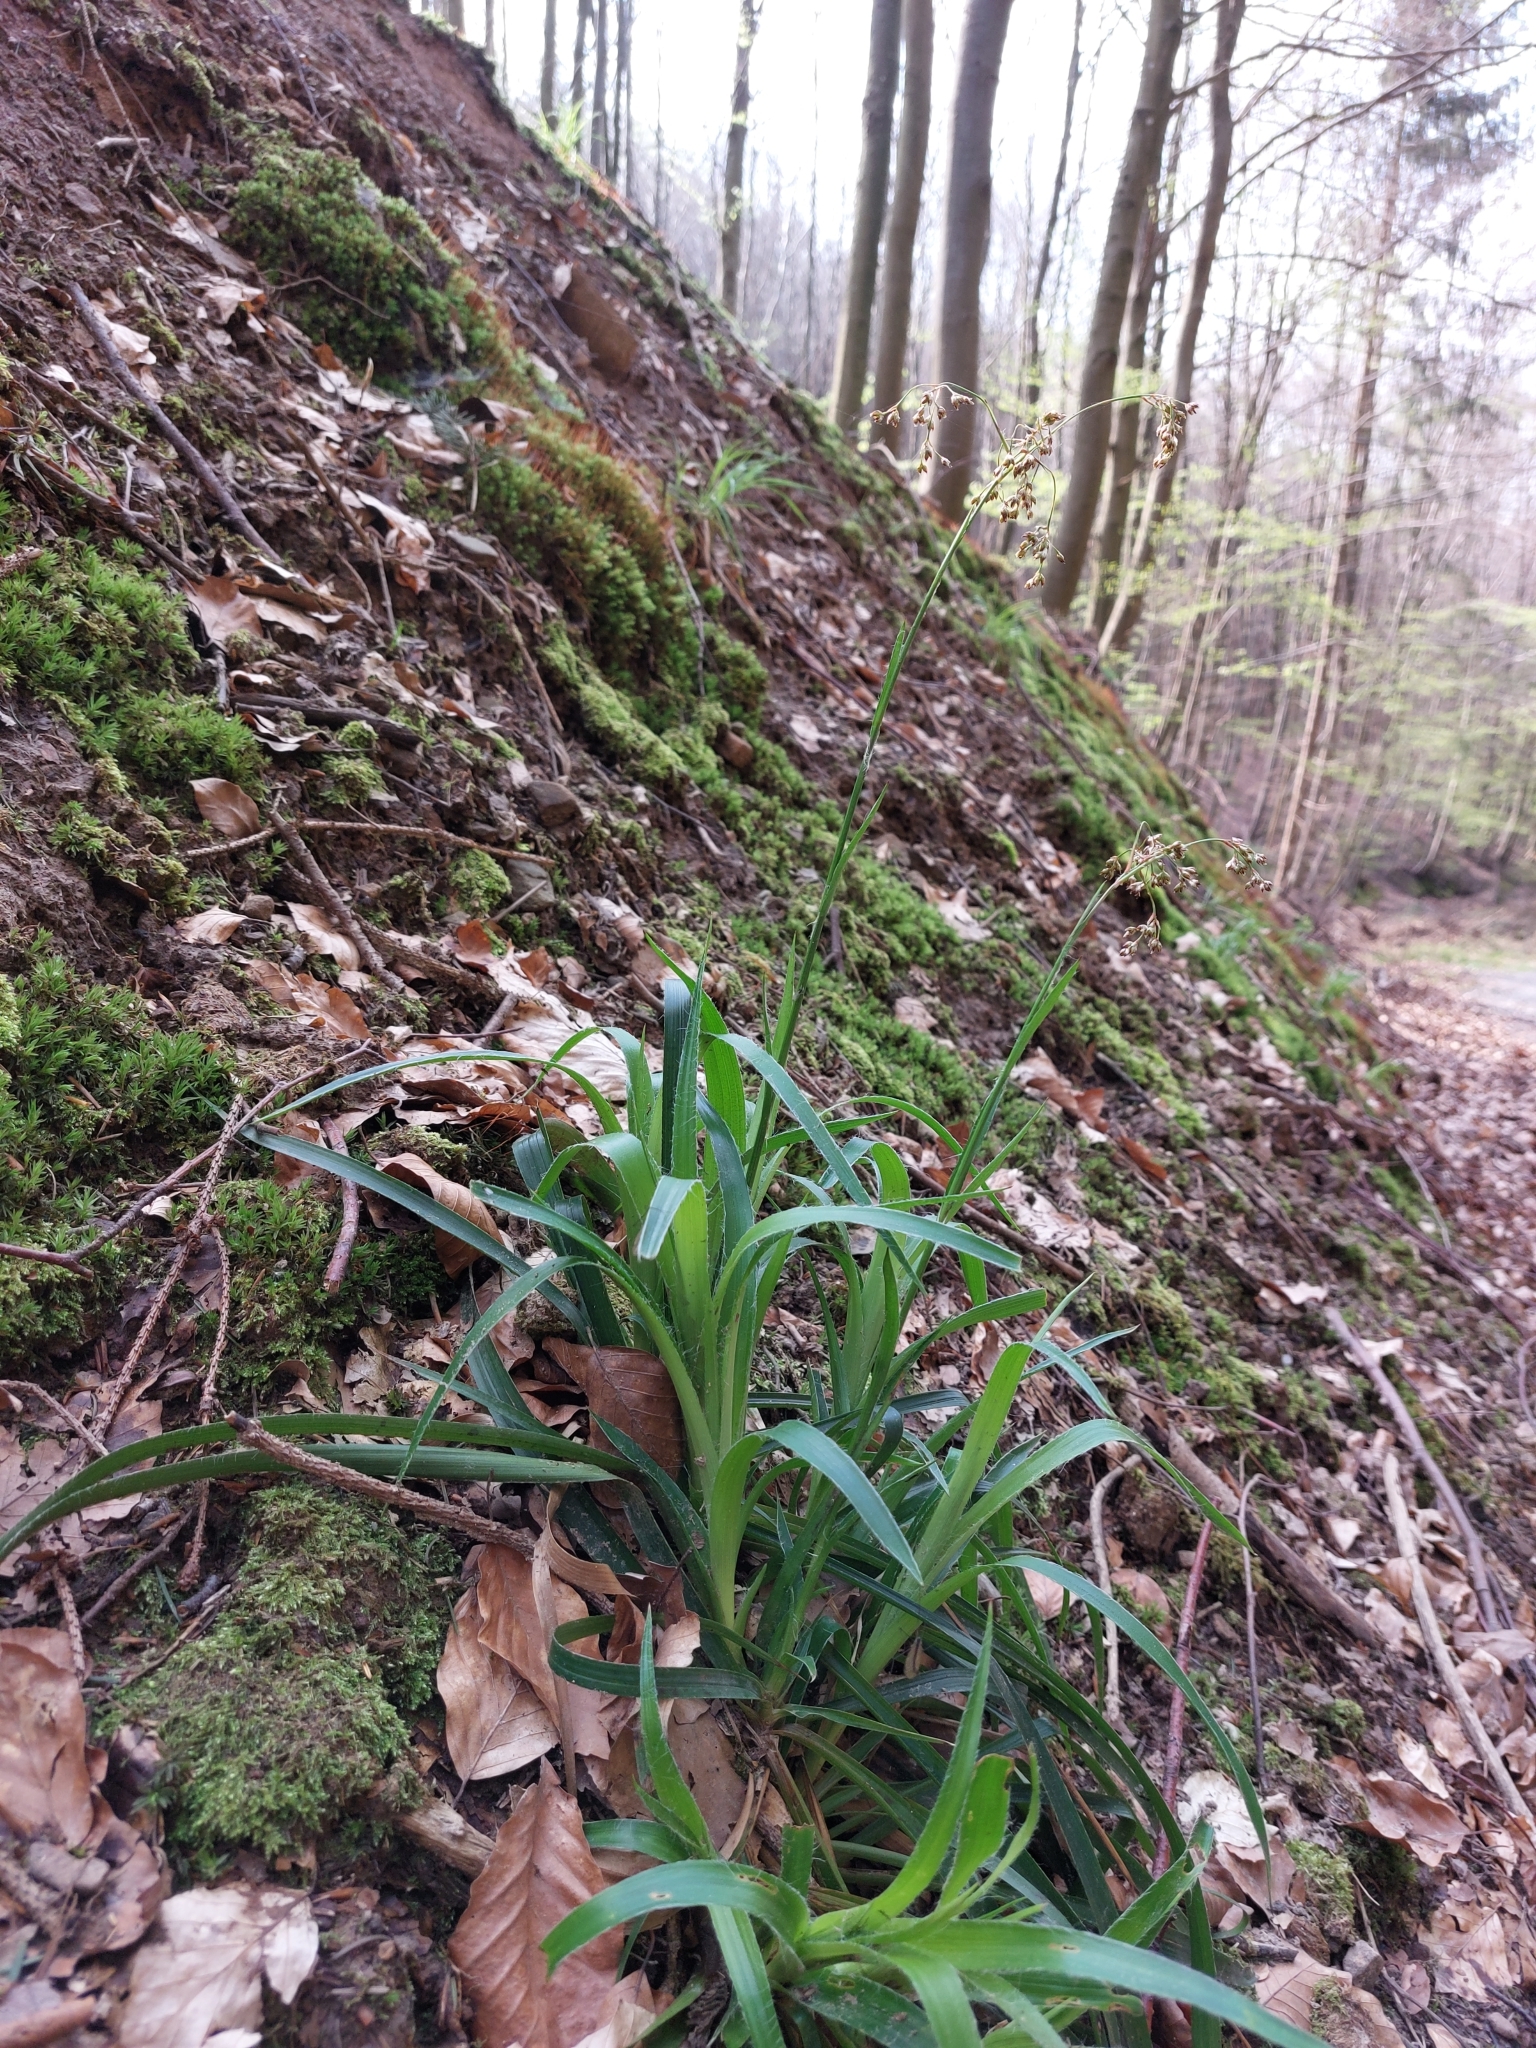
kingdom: Plantae
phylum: Tracheophyta
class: Liliopsida
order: Poales
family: Juncaceae
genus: Luzula
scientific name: Luzula sylvatica
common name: Great wood-rush
